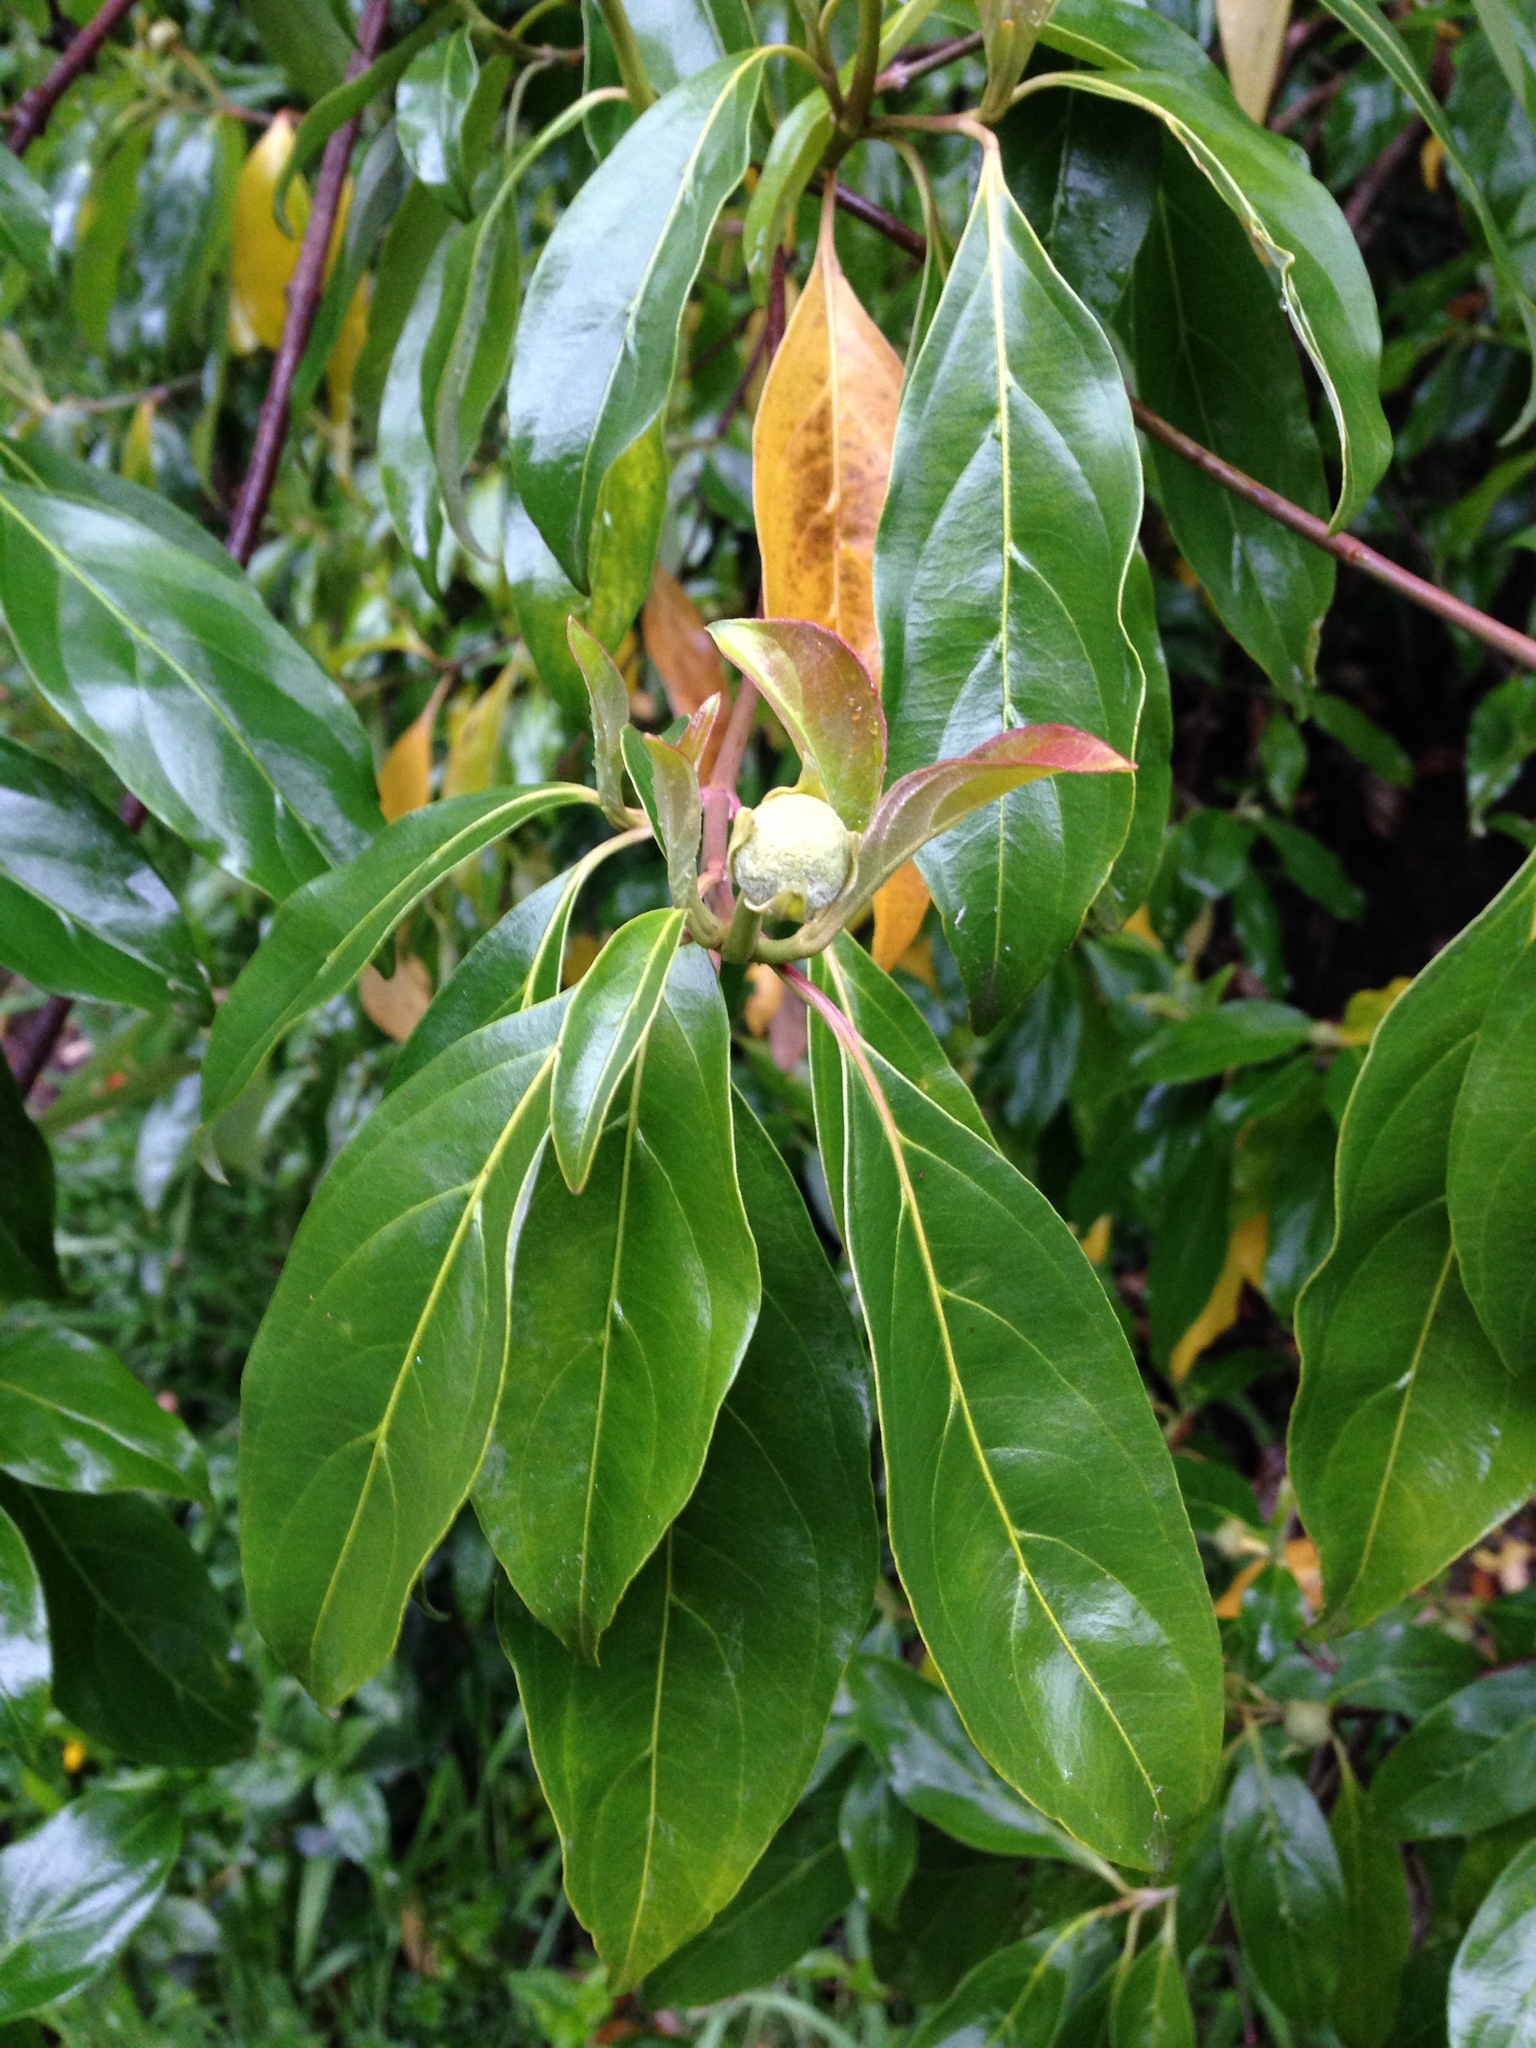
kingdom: Plantae
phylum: Tracheophyta
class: Magnoliopsida
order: Cornales
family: Cornaceae
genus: Cornus
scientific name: Cornus capitata
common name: Bentham's cornel
